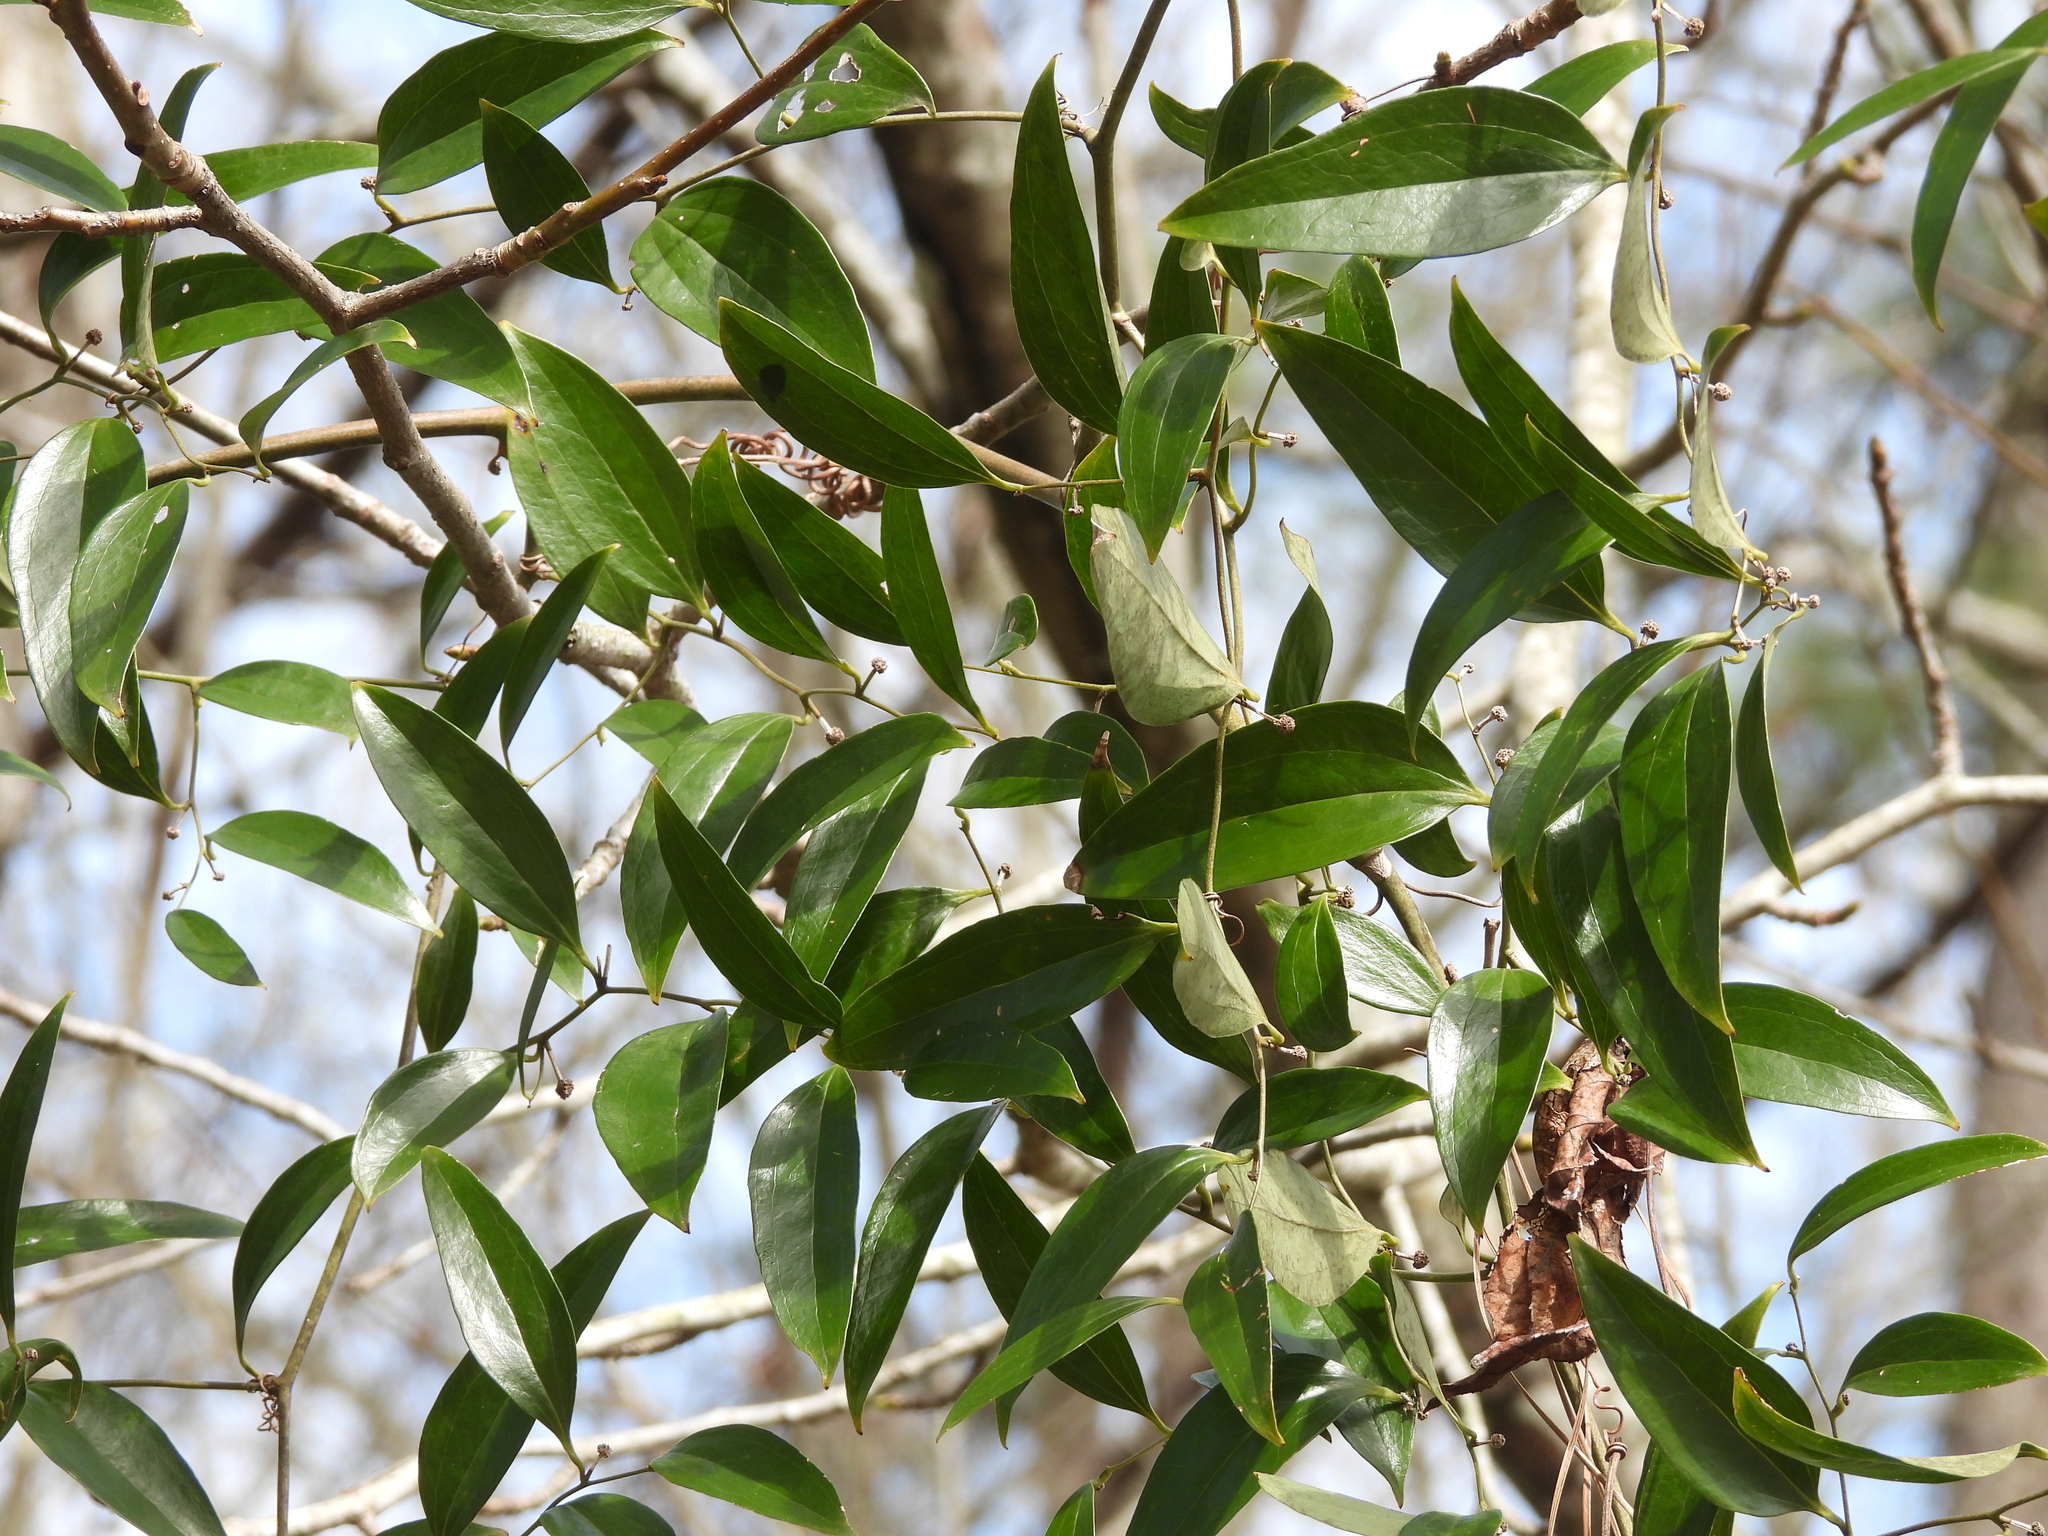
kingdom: Plantae
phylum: Tracheophyta
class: Liliopsida
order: Liliales
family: Smilacaceae
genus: Smilax
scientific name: Smilax maritima
